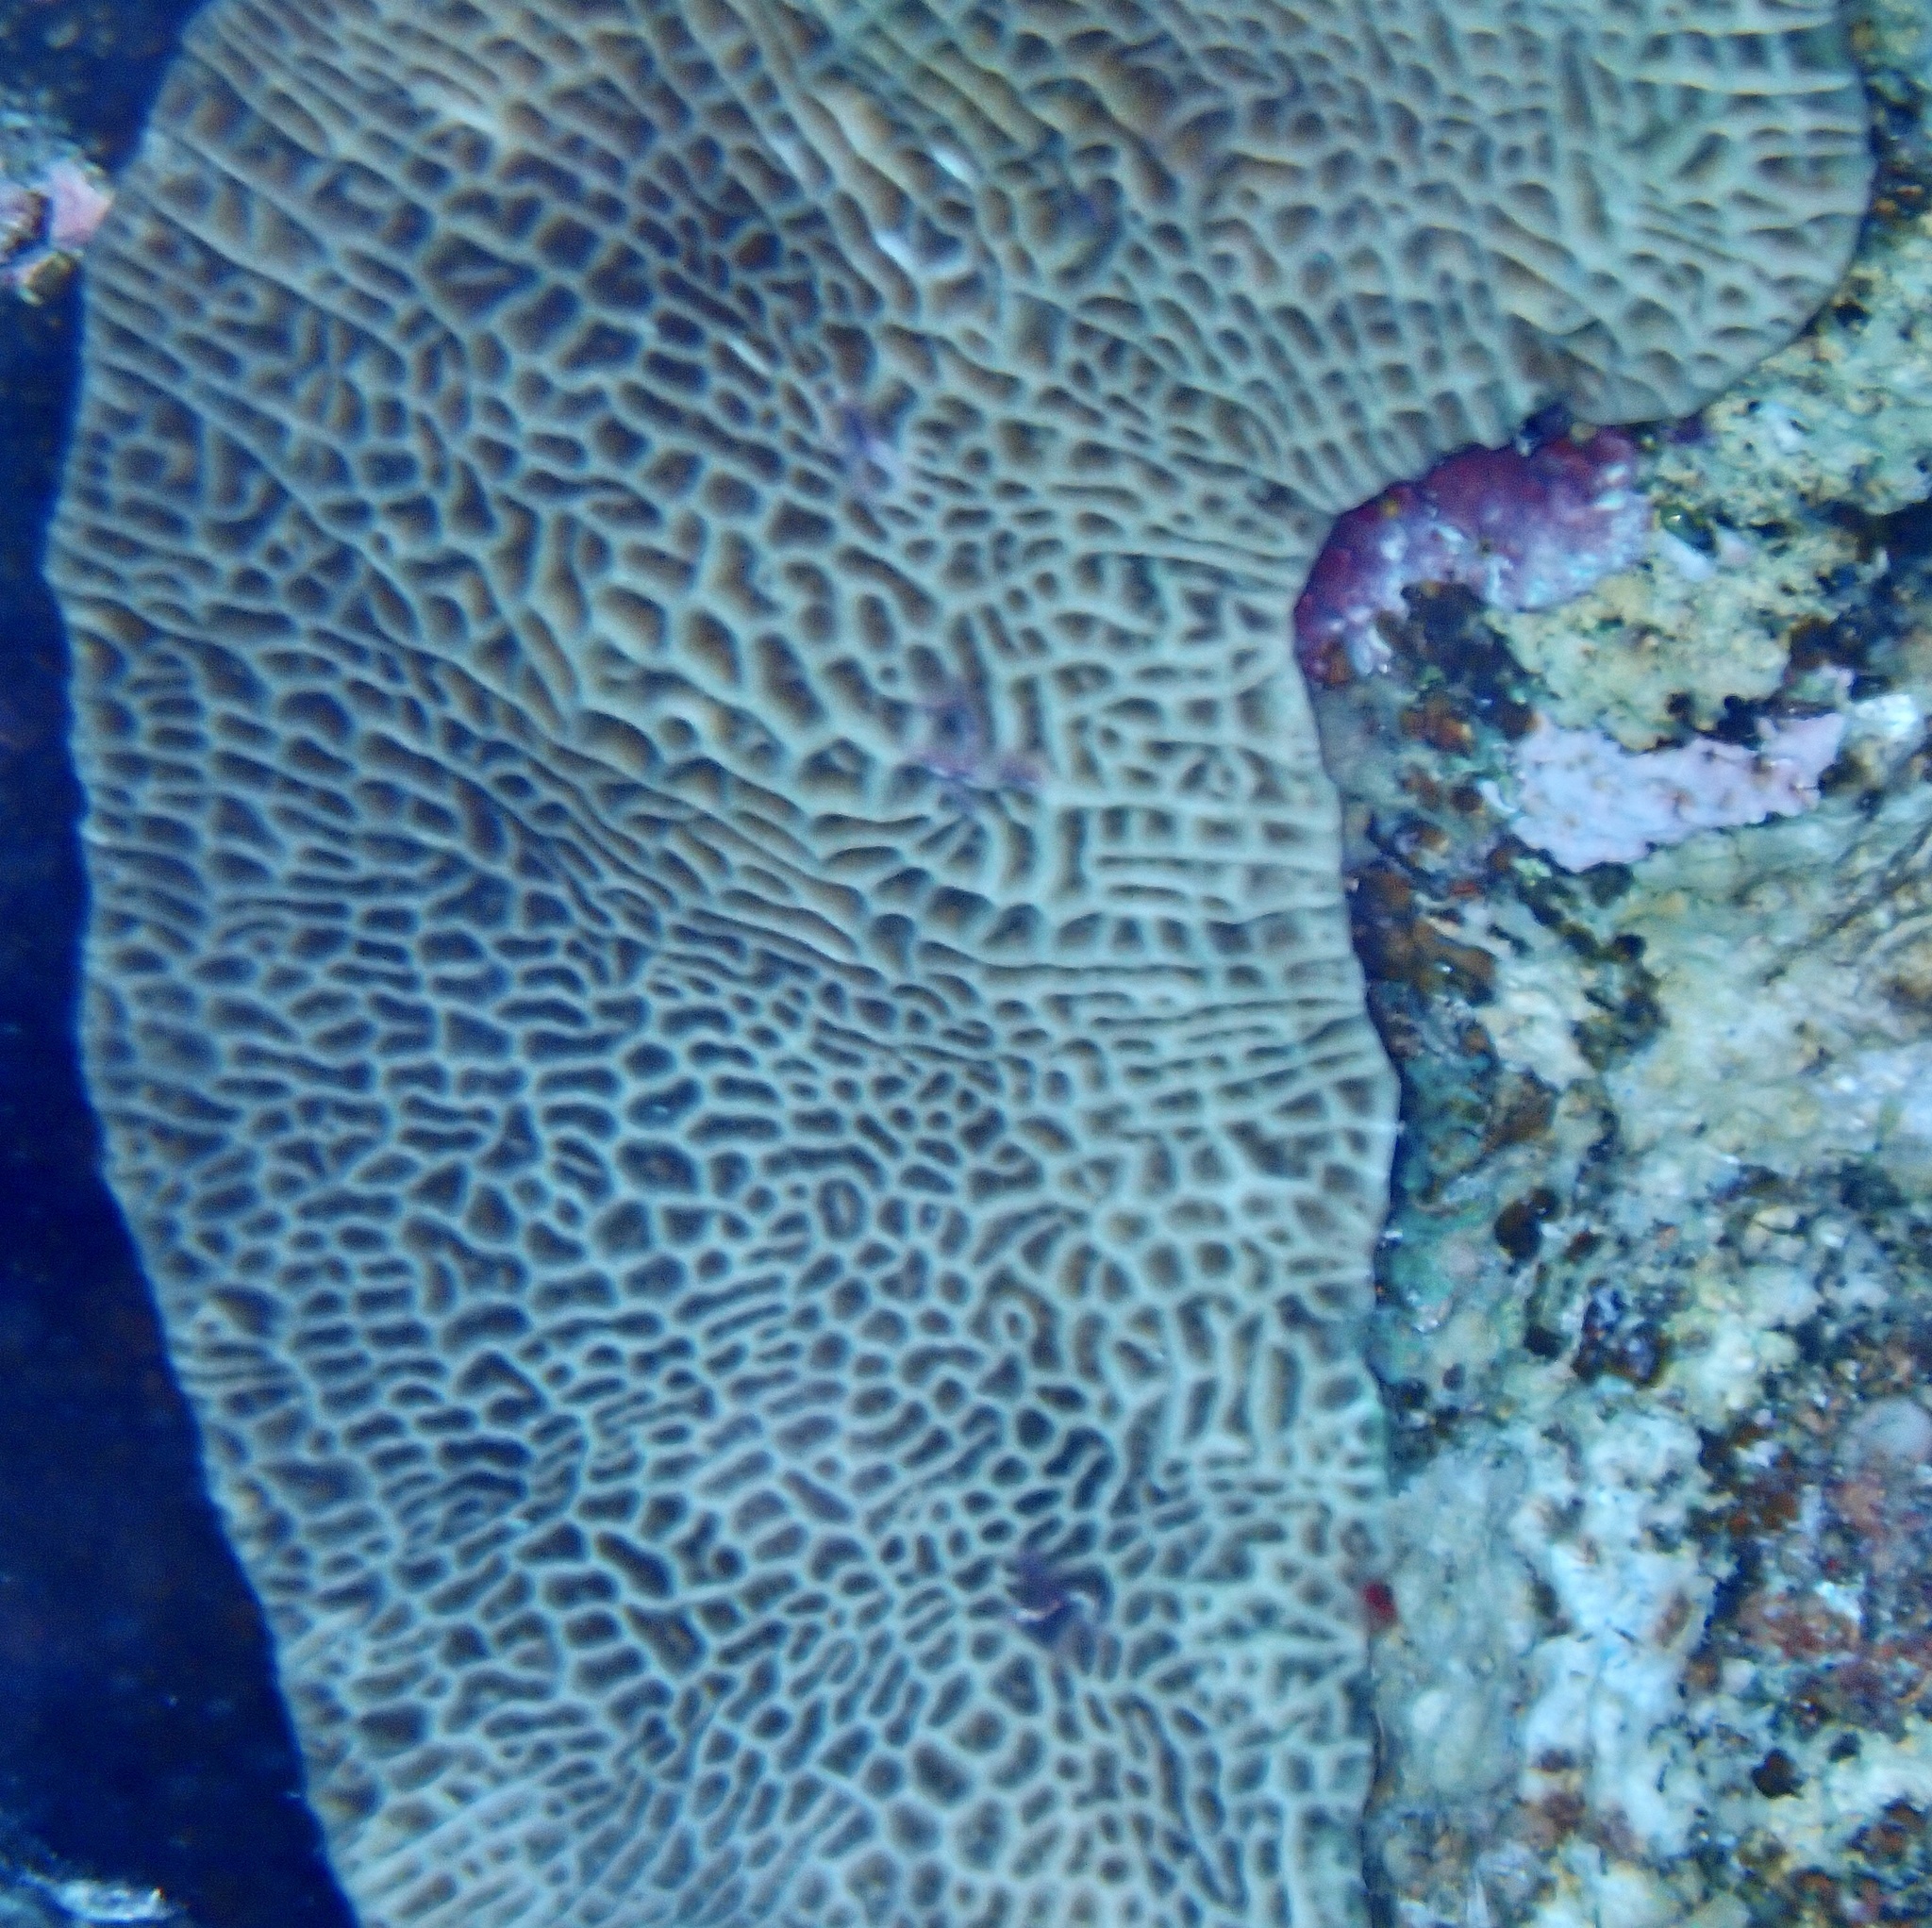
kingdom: Animalia
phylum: Cnidaria
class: Anthozoa
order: Scleractinia
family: Agariciidae
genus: Leptoseris
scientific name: Leptoseris mycetoseroides
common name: Porcelain coral
